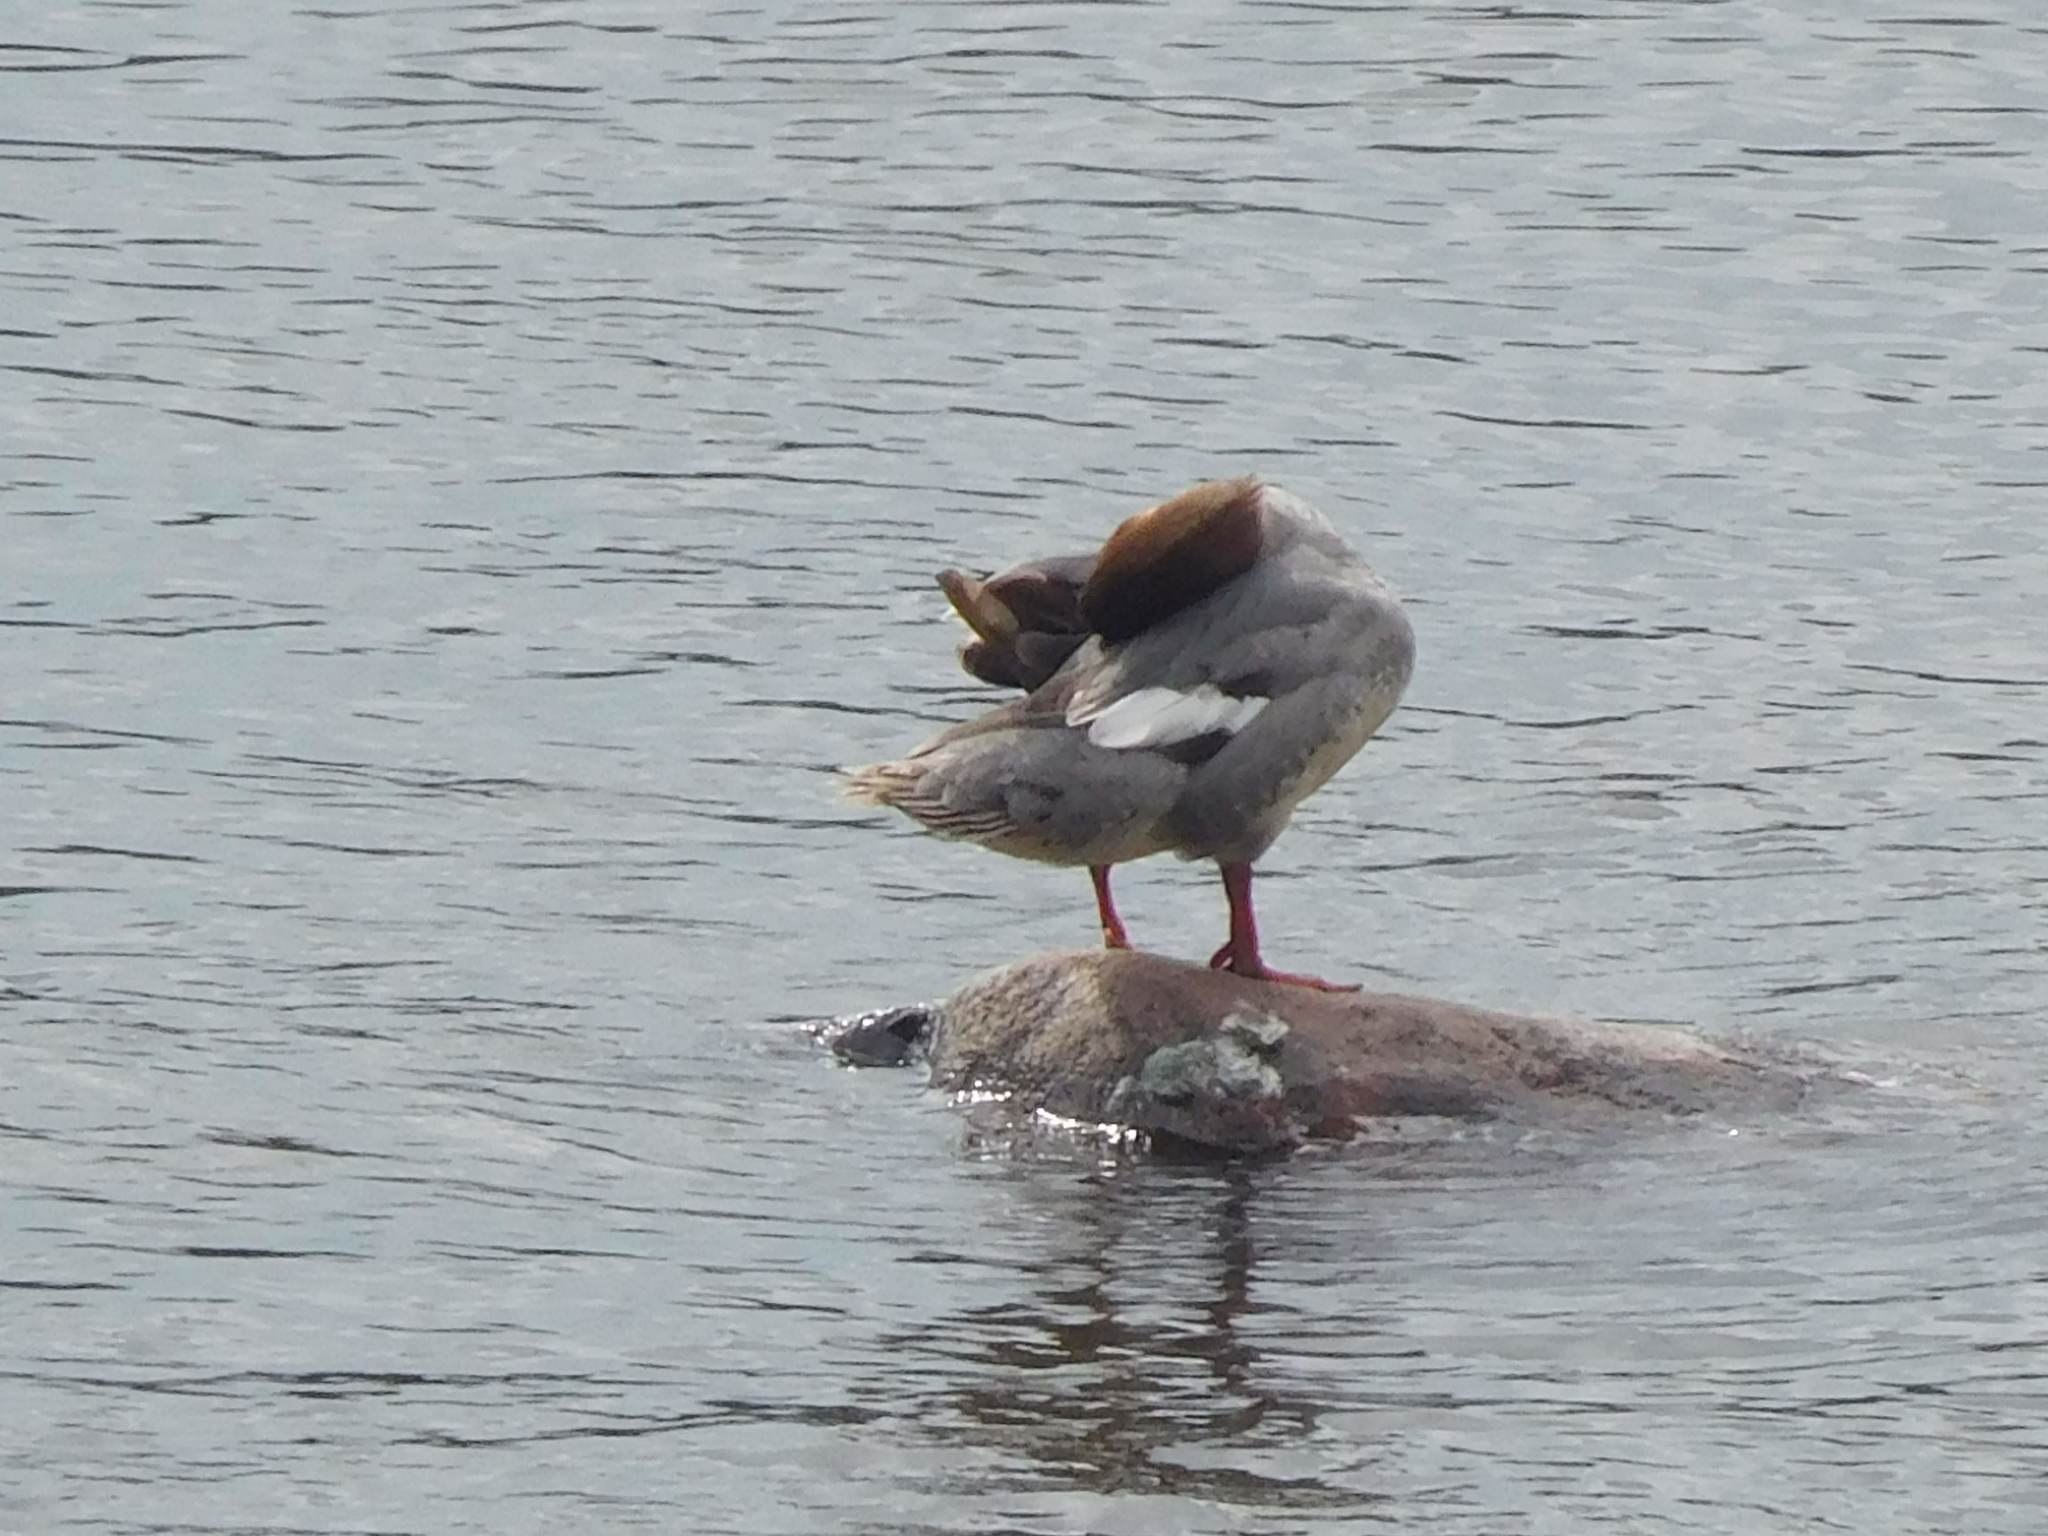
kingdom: Animalia
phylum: Chordata
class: Aves
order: Anseriformes
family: Anatidae
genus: Mergus
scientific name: Mergus merganser
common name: Common merganser
